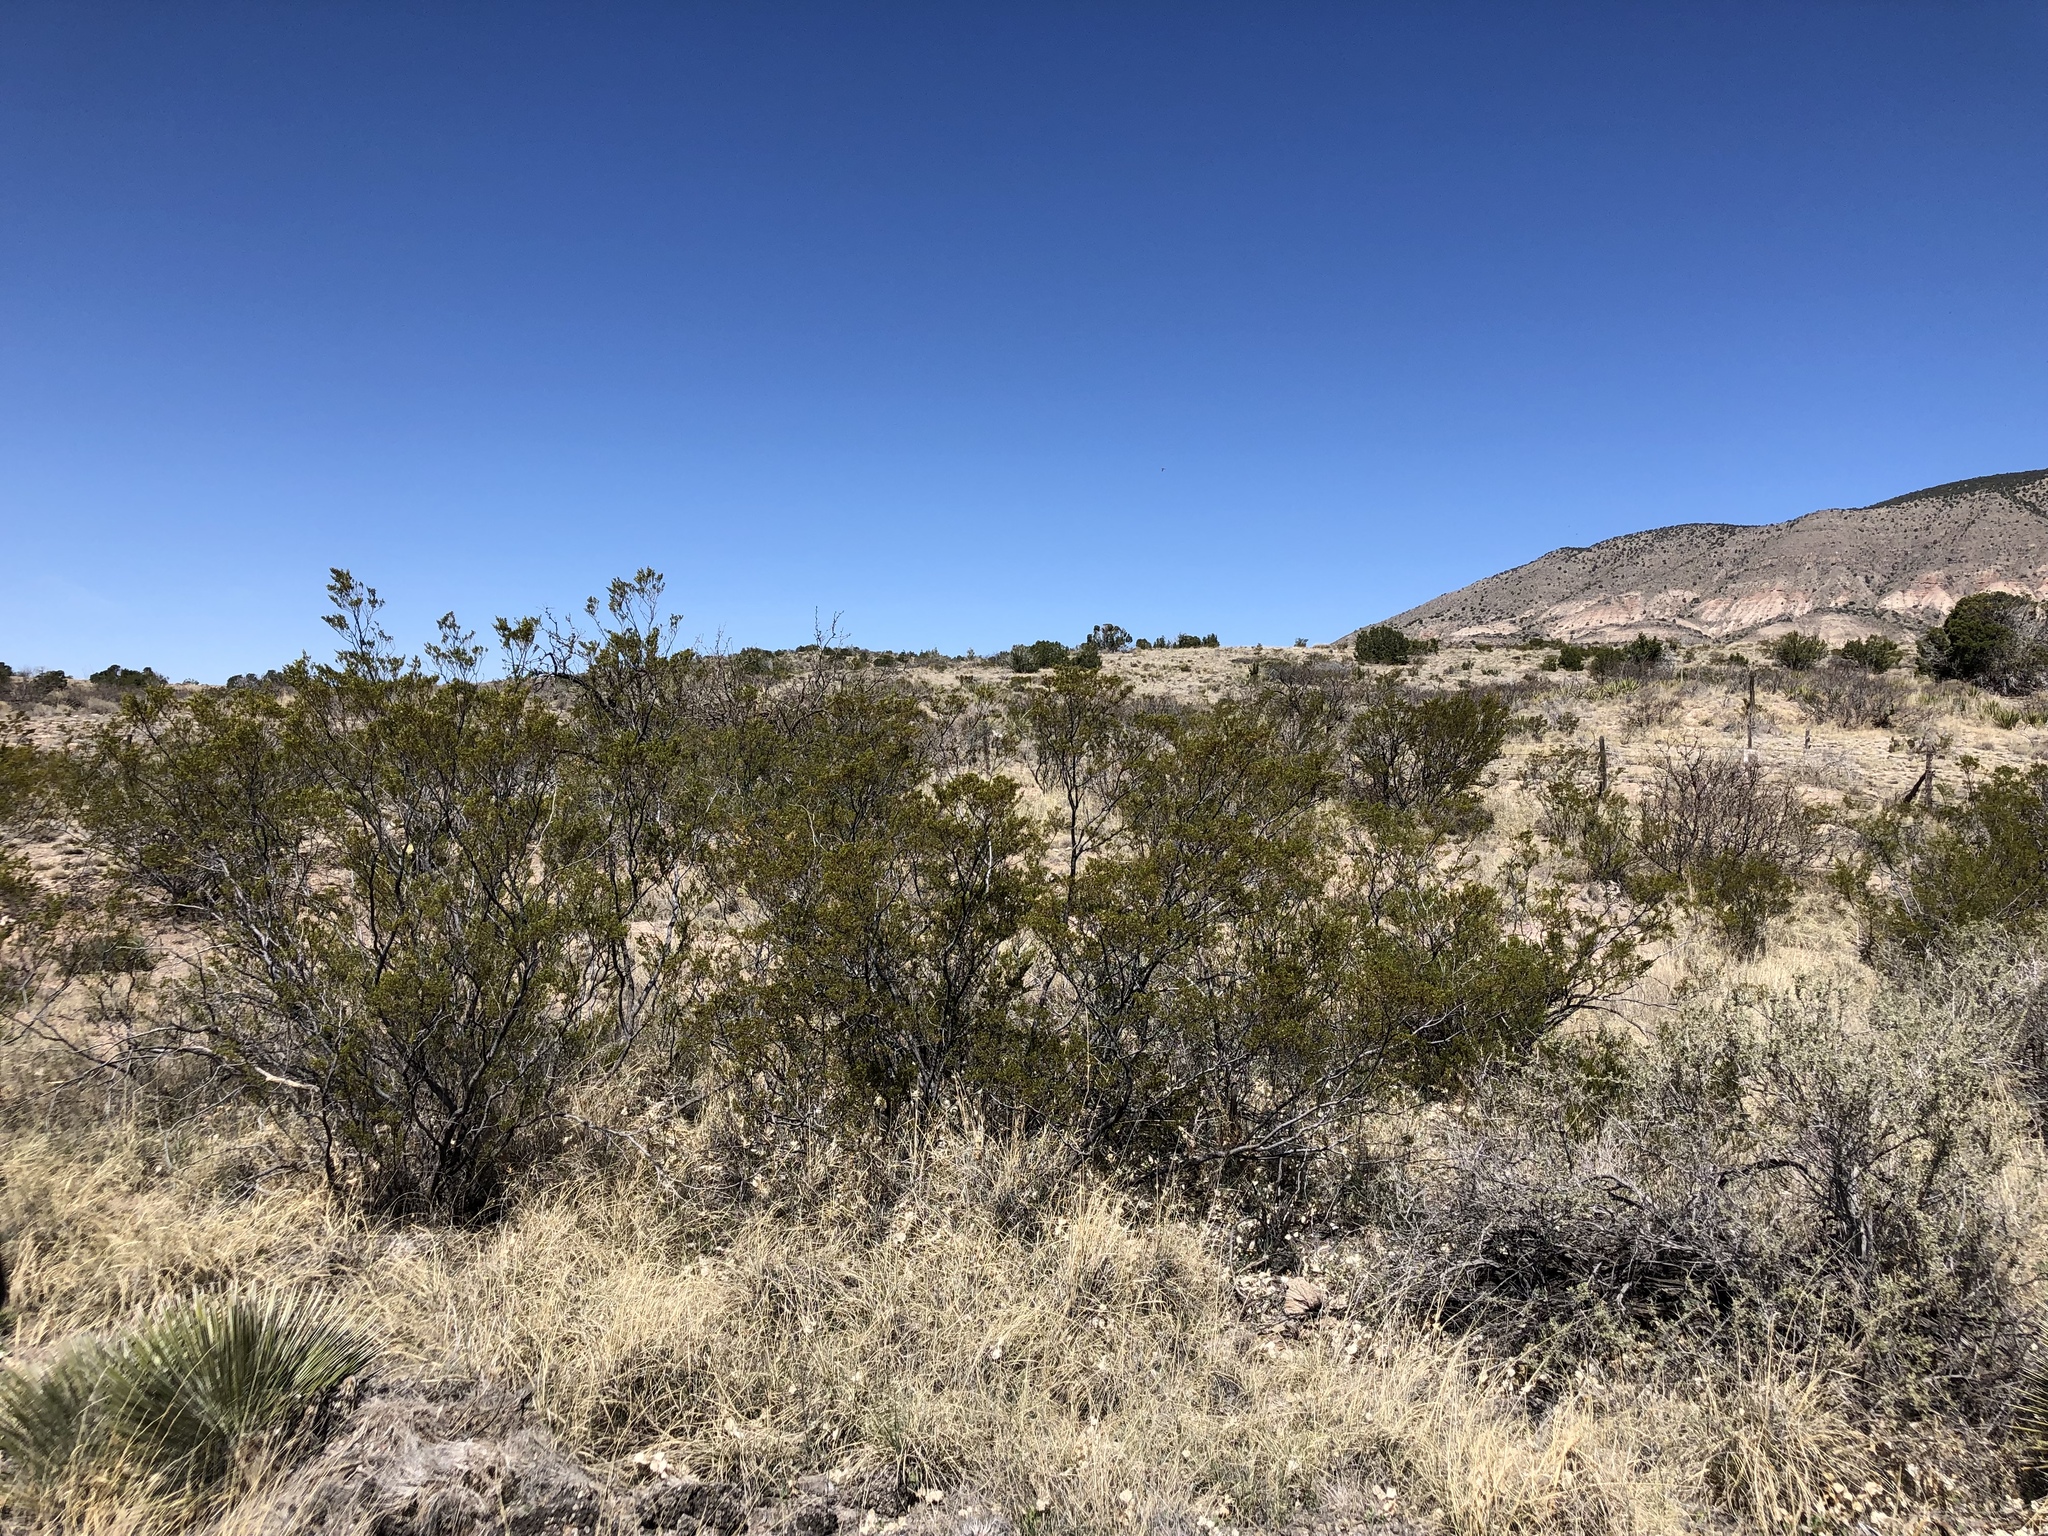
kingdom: Plantae
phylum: Tracheophyta
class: Magnoliopsida
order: Zygophyllales
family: Zygophyllaceae
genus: Larrea
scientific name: Larrea tridentata
